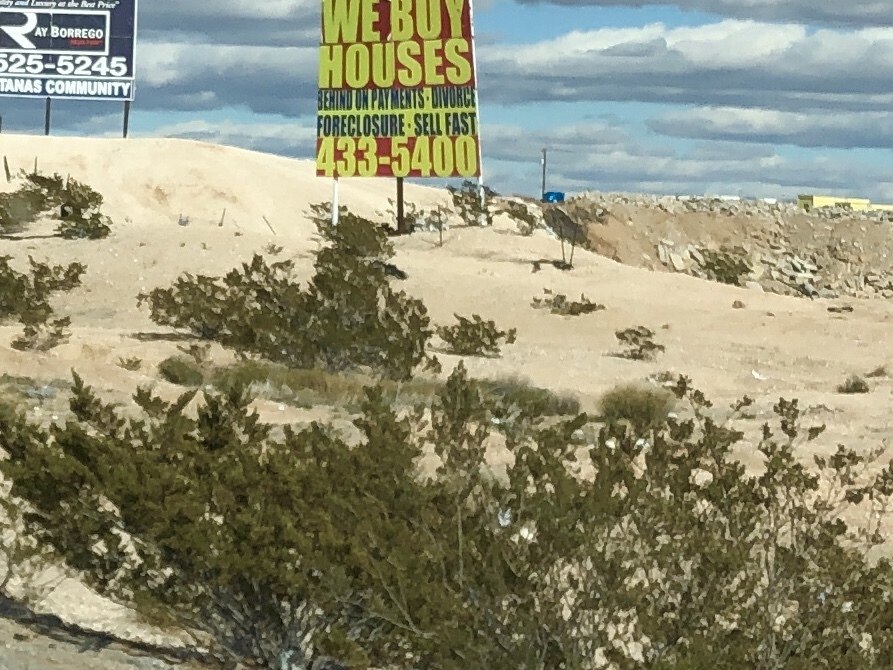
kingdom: Plantae
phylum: Tracheophyta
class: Magnoliopsida
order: Zygophyllales
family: Zygophyllaceae
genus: Larrea
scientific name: Larrea tridentata
